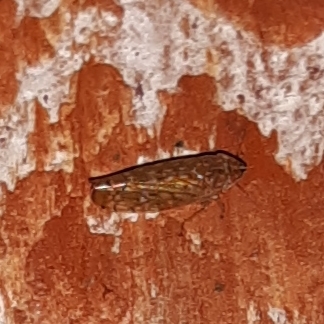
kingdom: Animalia
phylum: Arthropoda
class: Insecta
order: Hemiptera
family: Cicadellidae
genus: Cantura
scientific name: Cantura jucunda
